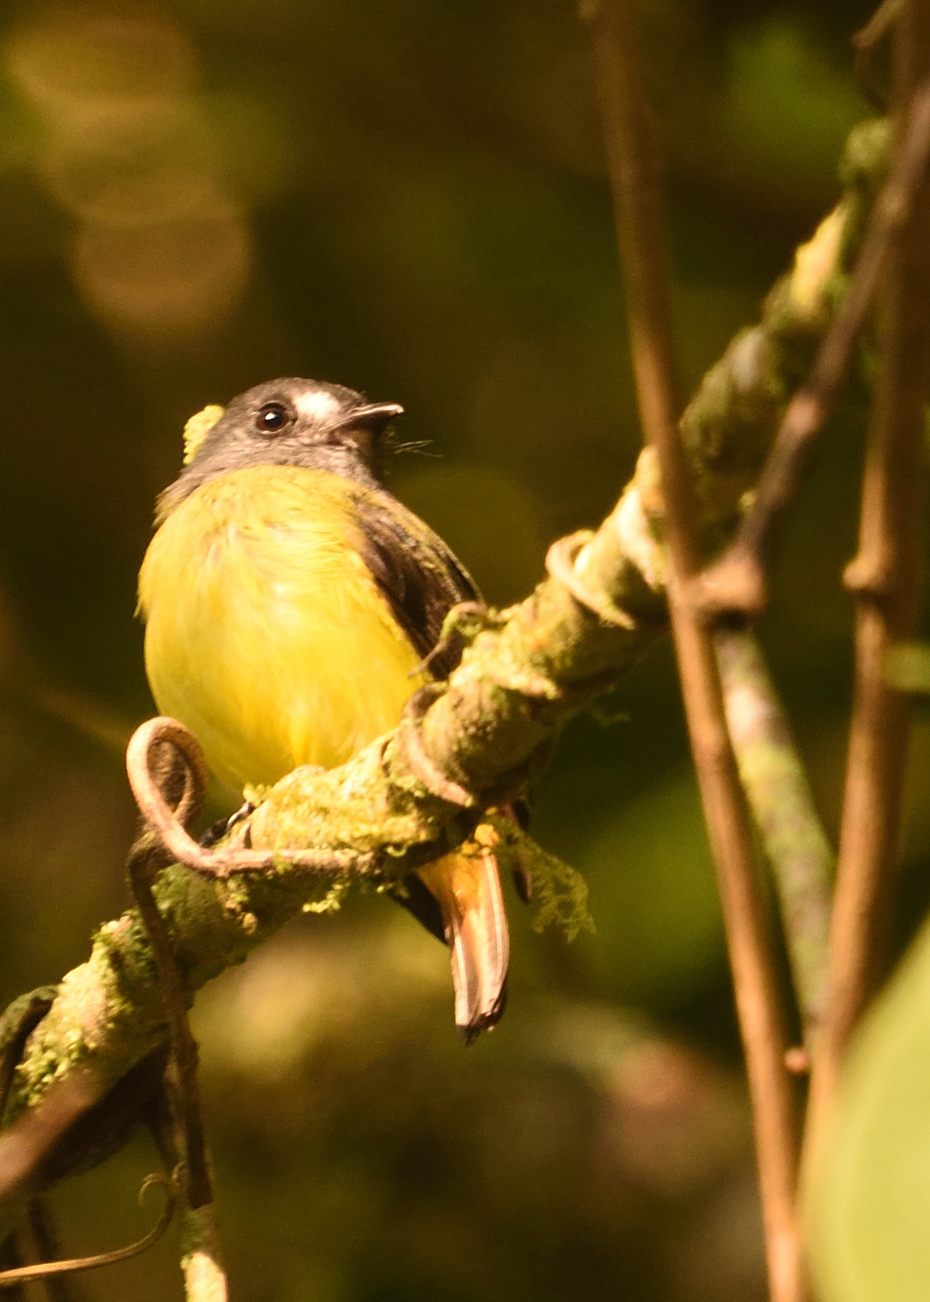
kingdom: Animalia
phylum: Chordata
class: Aves
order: Passeriformes
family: Tyrannidae
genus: Myiotriccus
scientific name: Myiotriccus ornatus
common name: Ornate flycatcher
